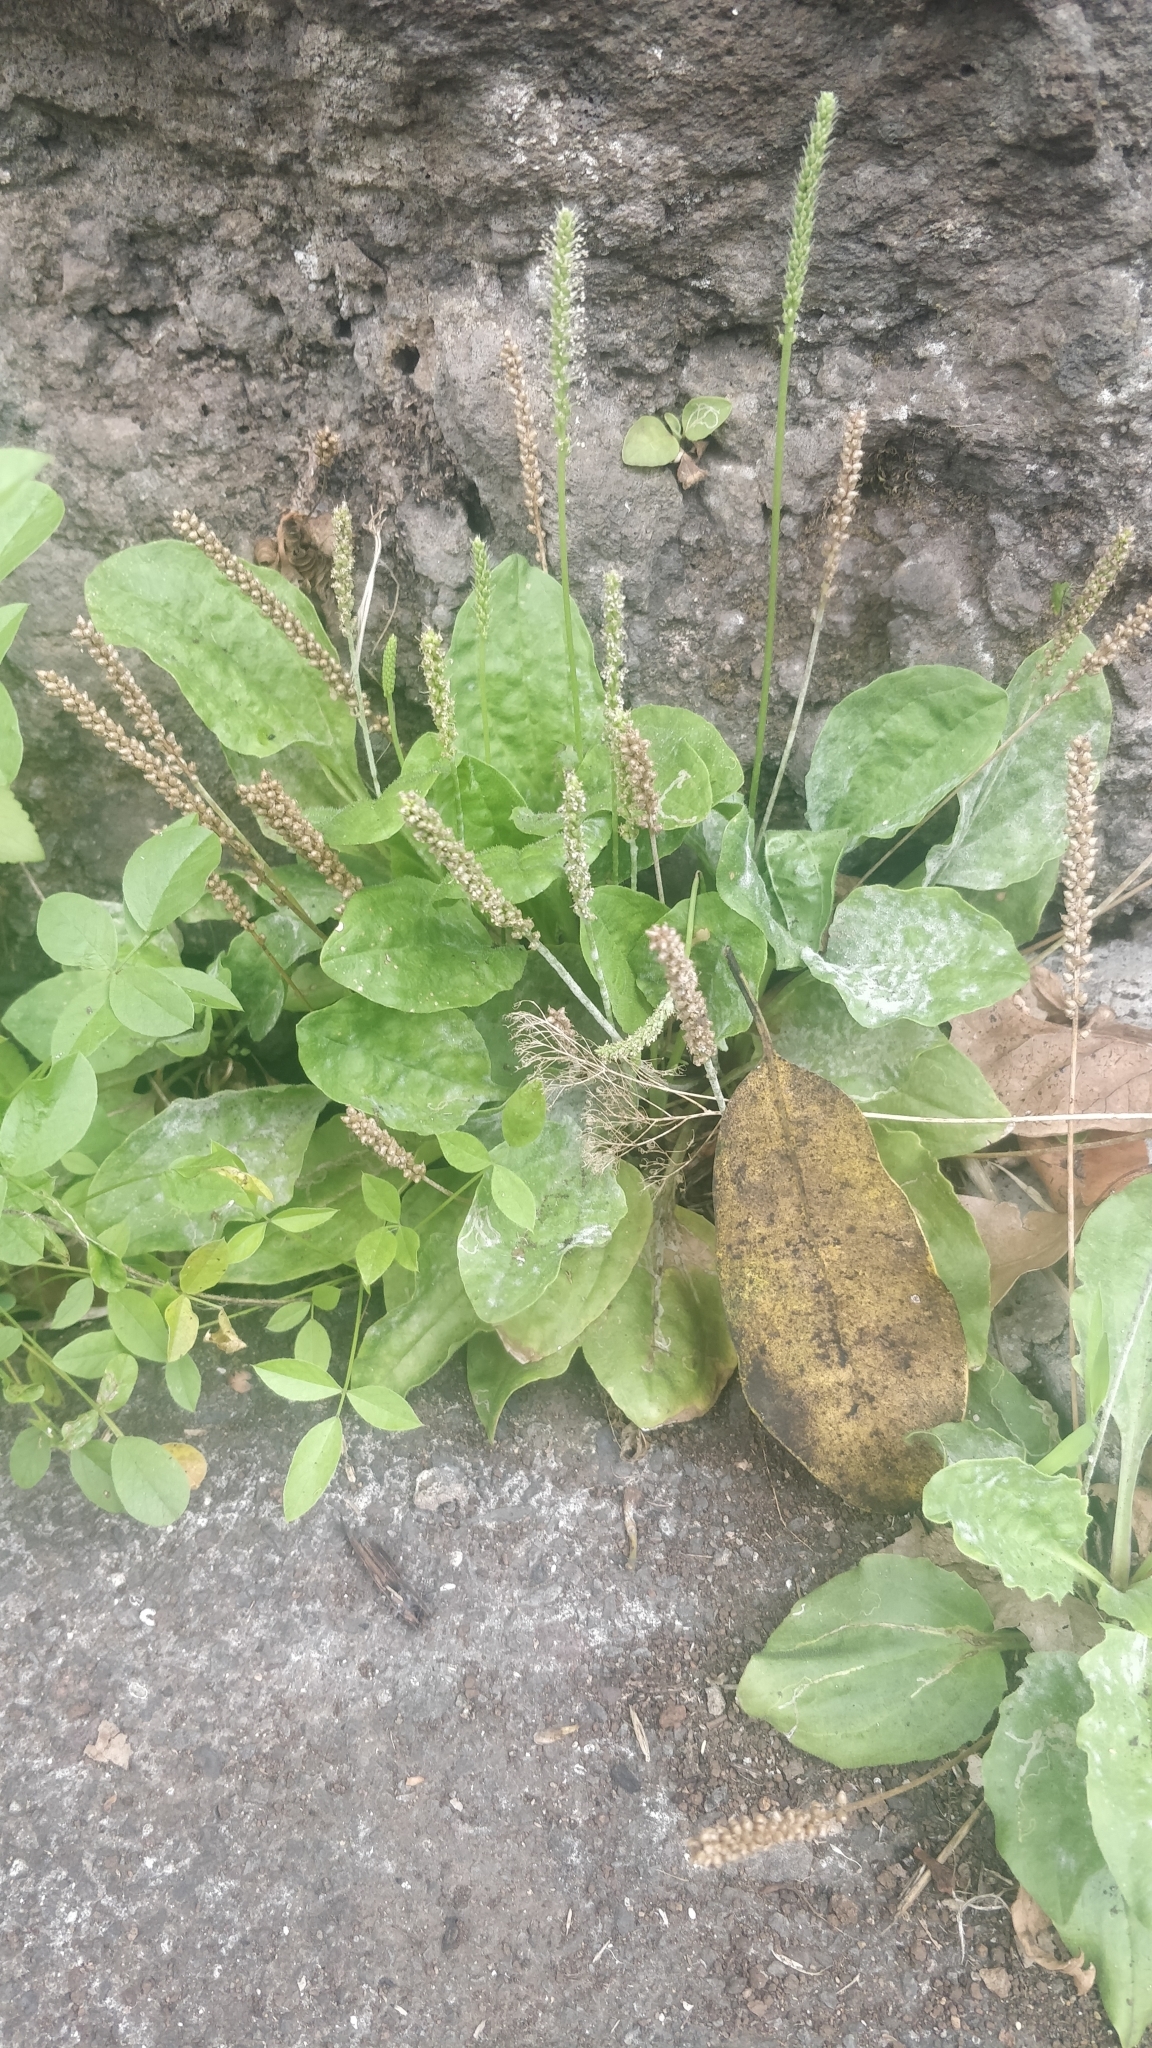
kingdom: Plantae
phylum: Tracheophyta
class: Magnoliopsida
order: Lamiales
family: Plantaginaceae
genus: Plantago
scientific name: Plantago major
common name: Common plantain
